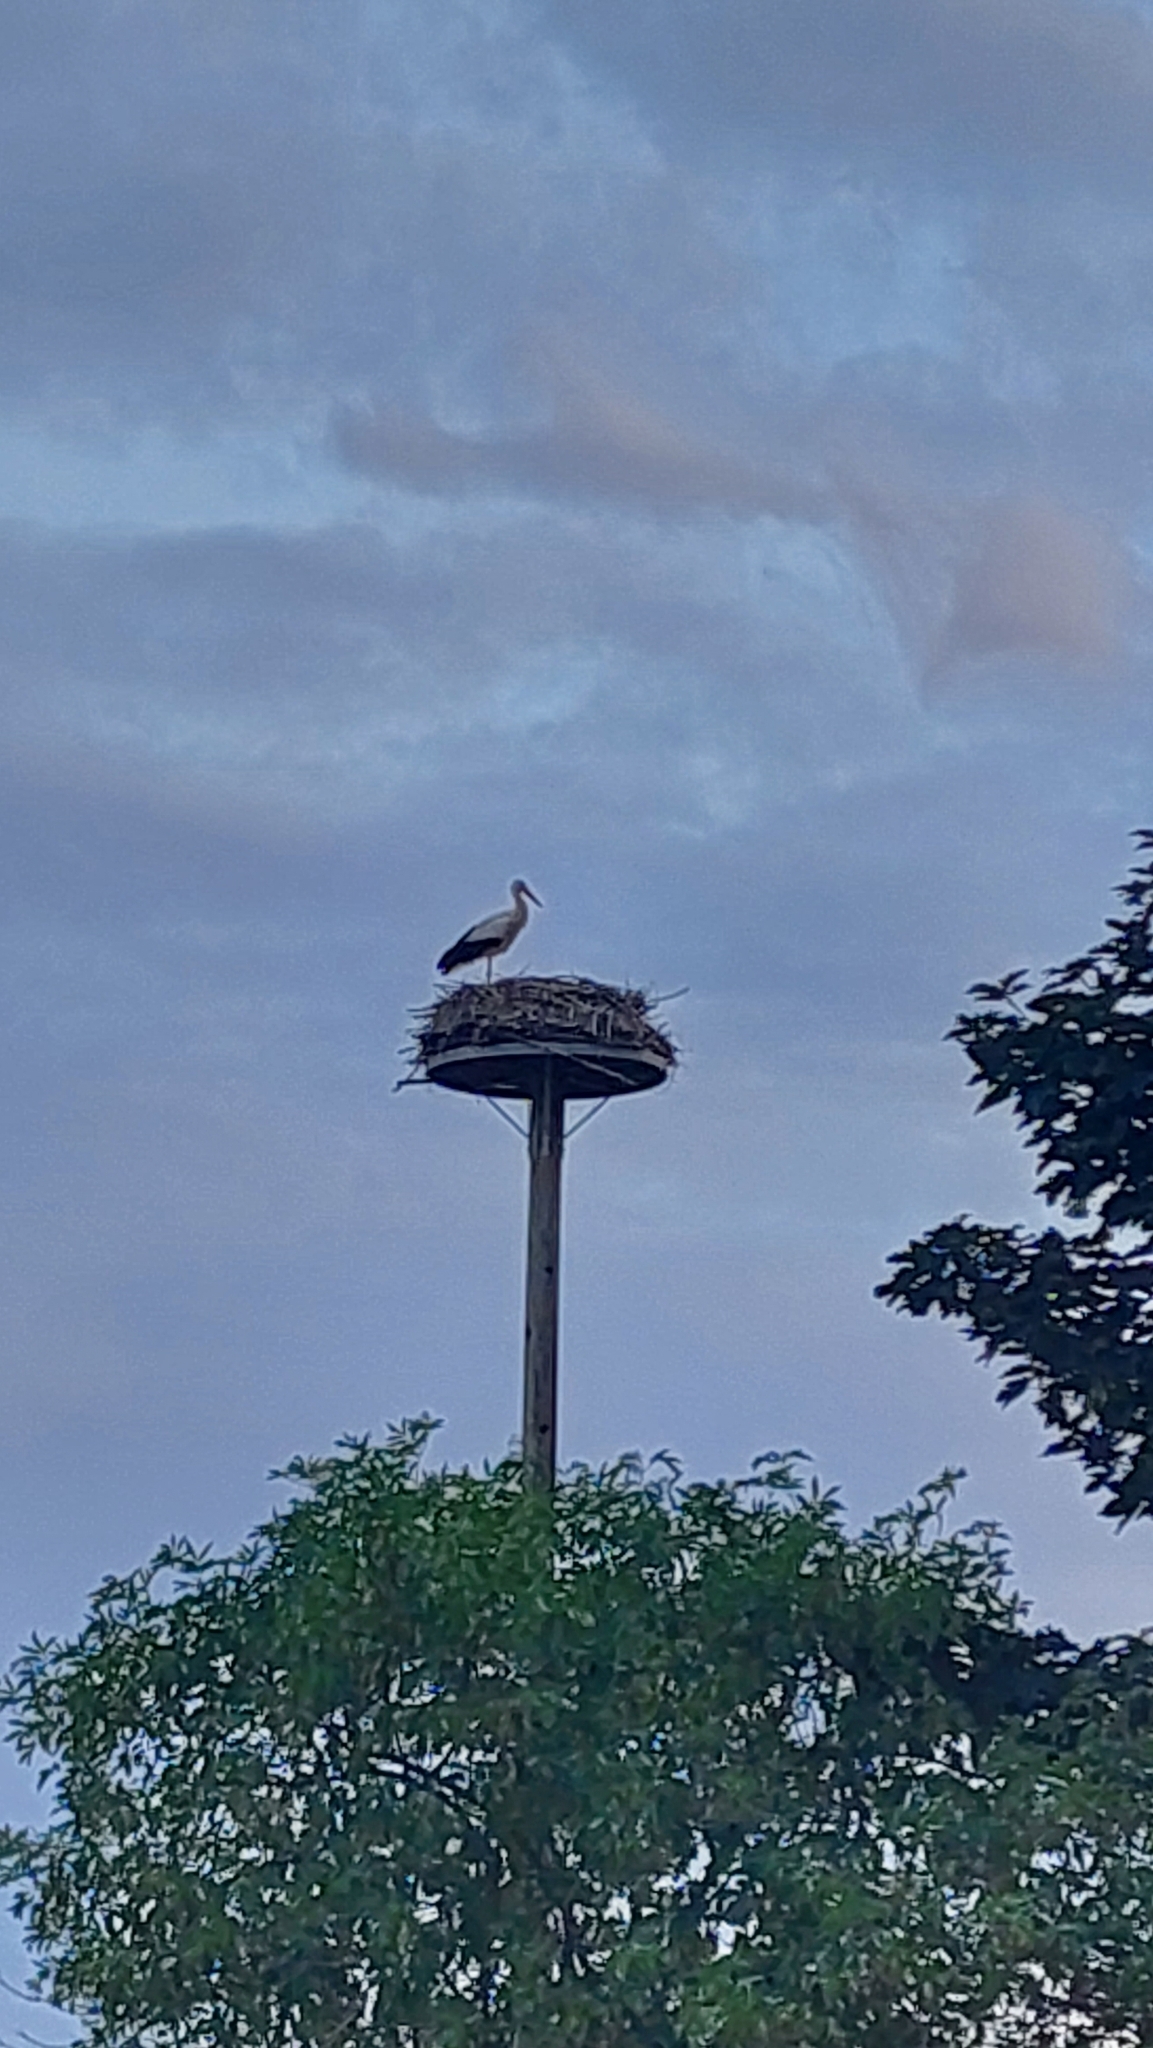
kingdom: Animalia
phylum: Chordata
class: Aves
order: Ciconiiformes
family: Ciconiidae
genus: Ciconia
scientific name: Ciconia ciconia
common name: White stork
